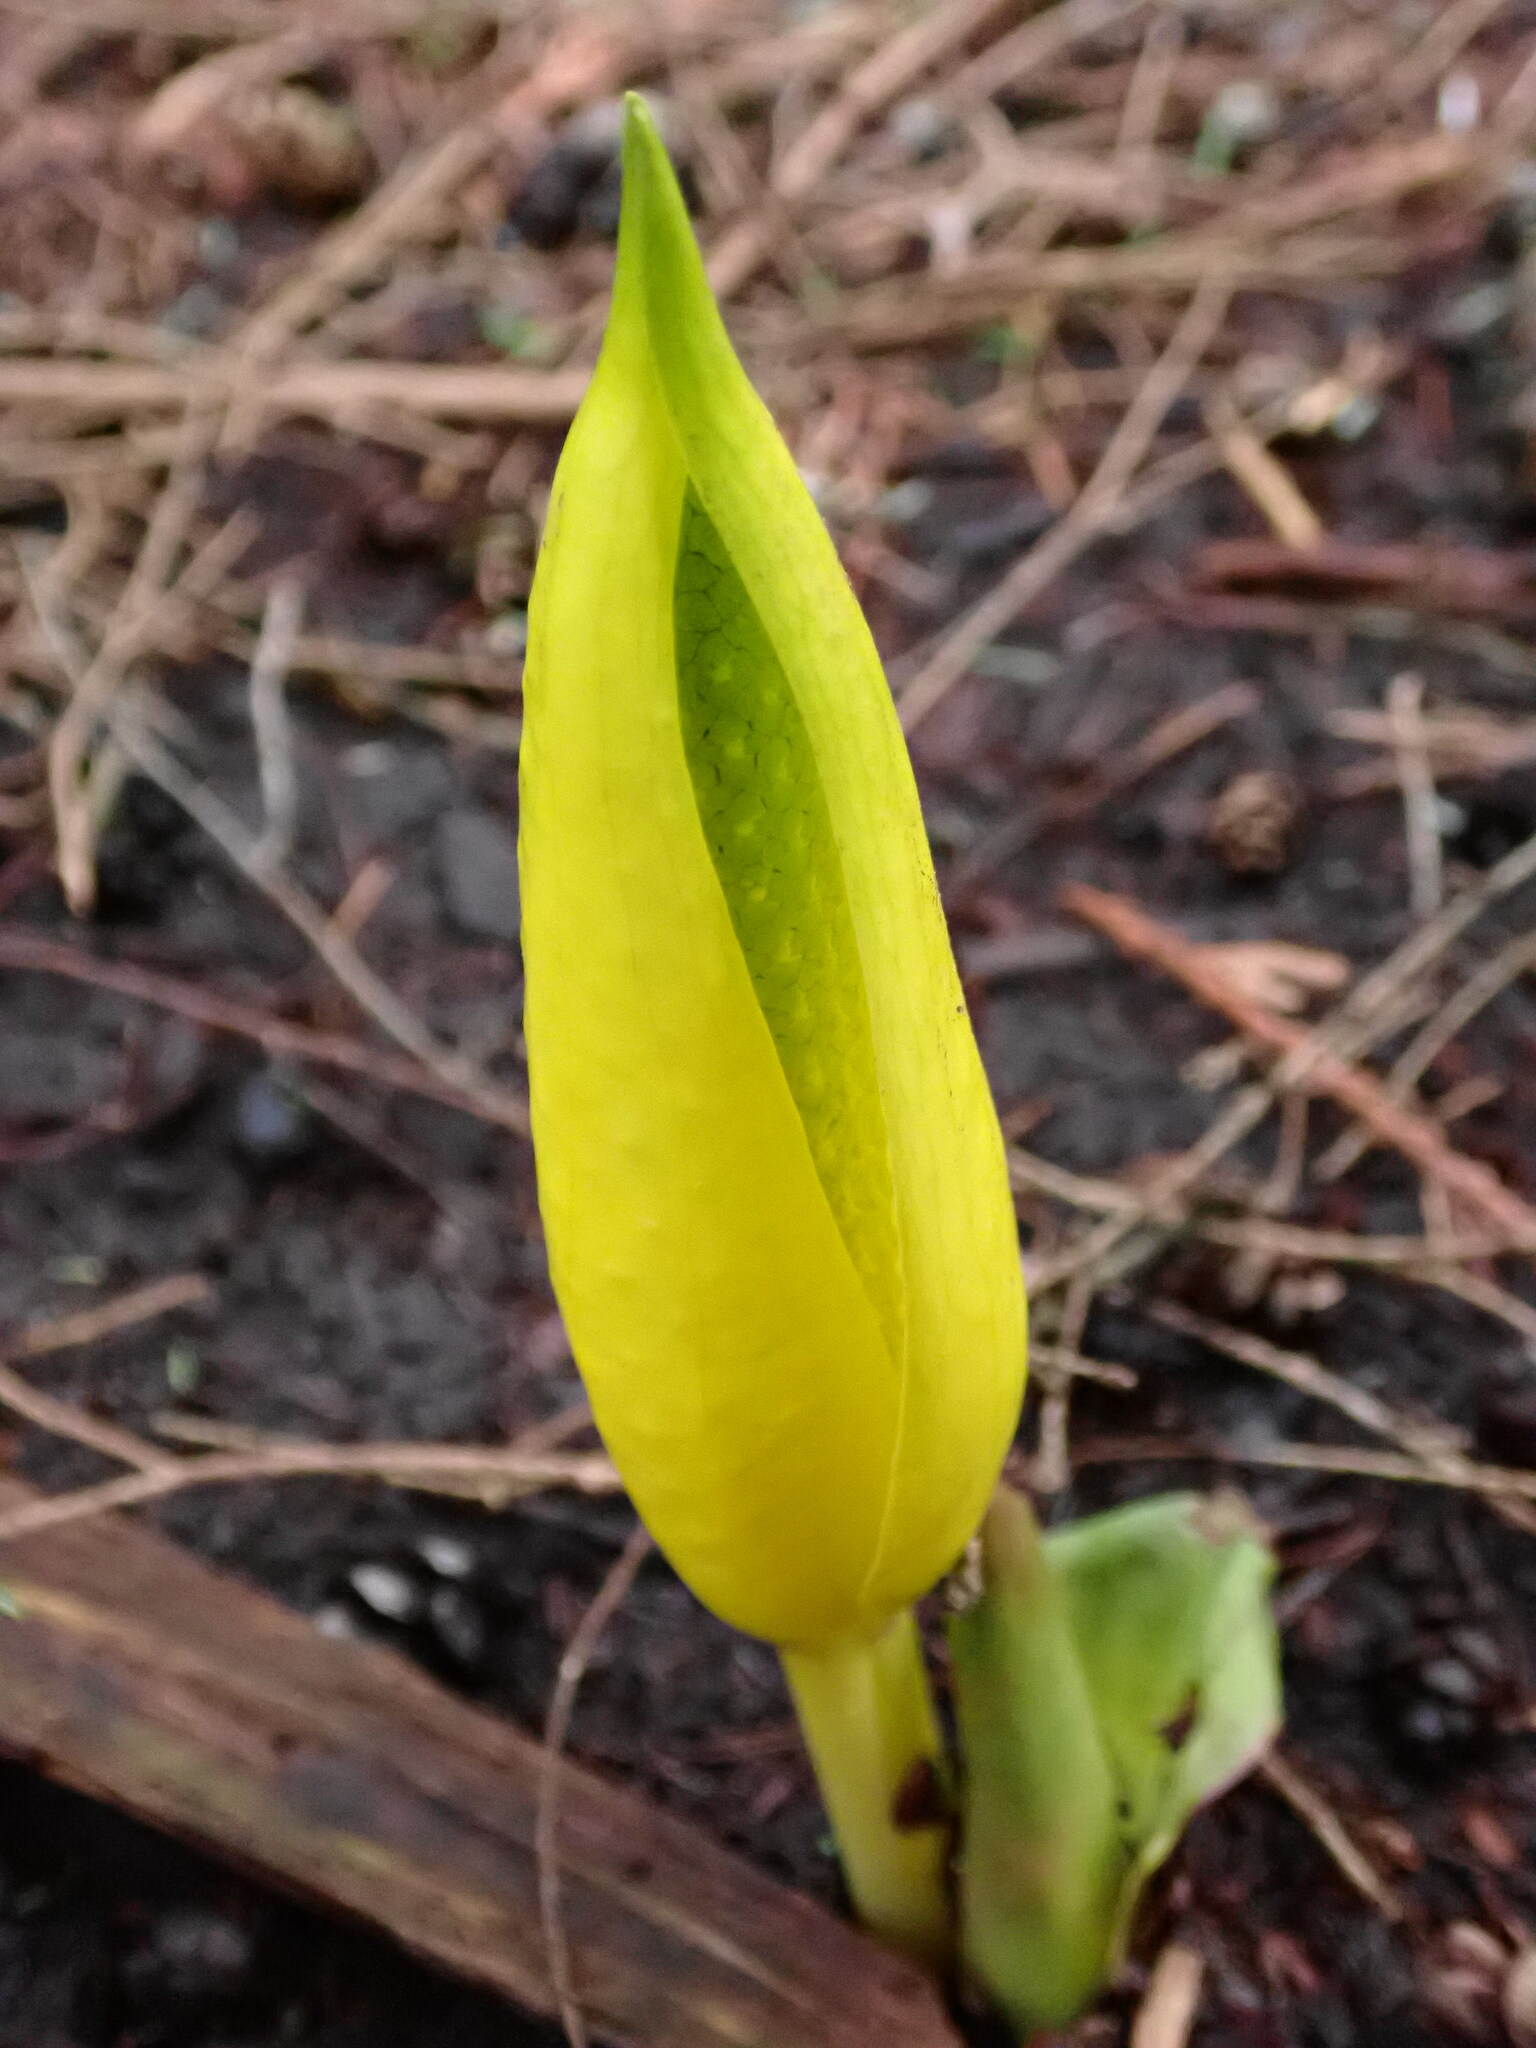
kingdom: Plantae
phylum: Tracheophyta
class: Liliopsida
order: Alismatales
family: Araceae
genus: Lysichiton
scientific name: Lysichiton americanus
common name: American skunk cabbage
